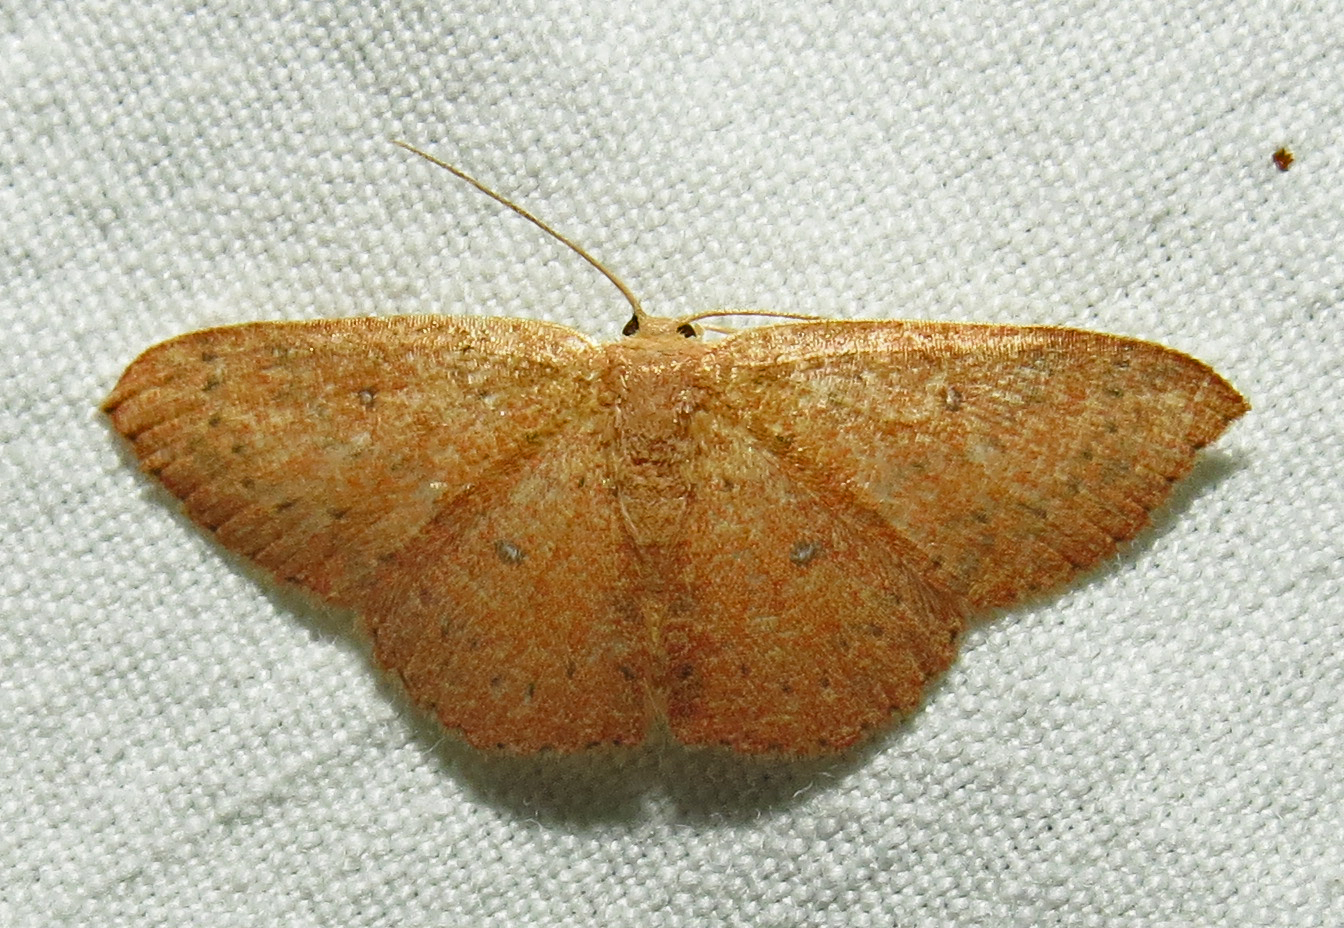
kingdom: Animalia
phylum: Arthropoda
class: Insecta
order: Lepidoptera
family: Geometridae
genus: Cyclophora
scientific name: Cyclophora packardi
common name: Packard's wave
